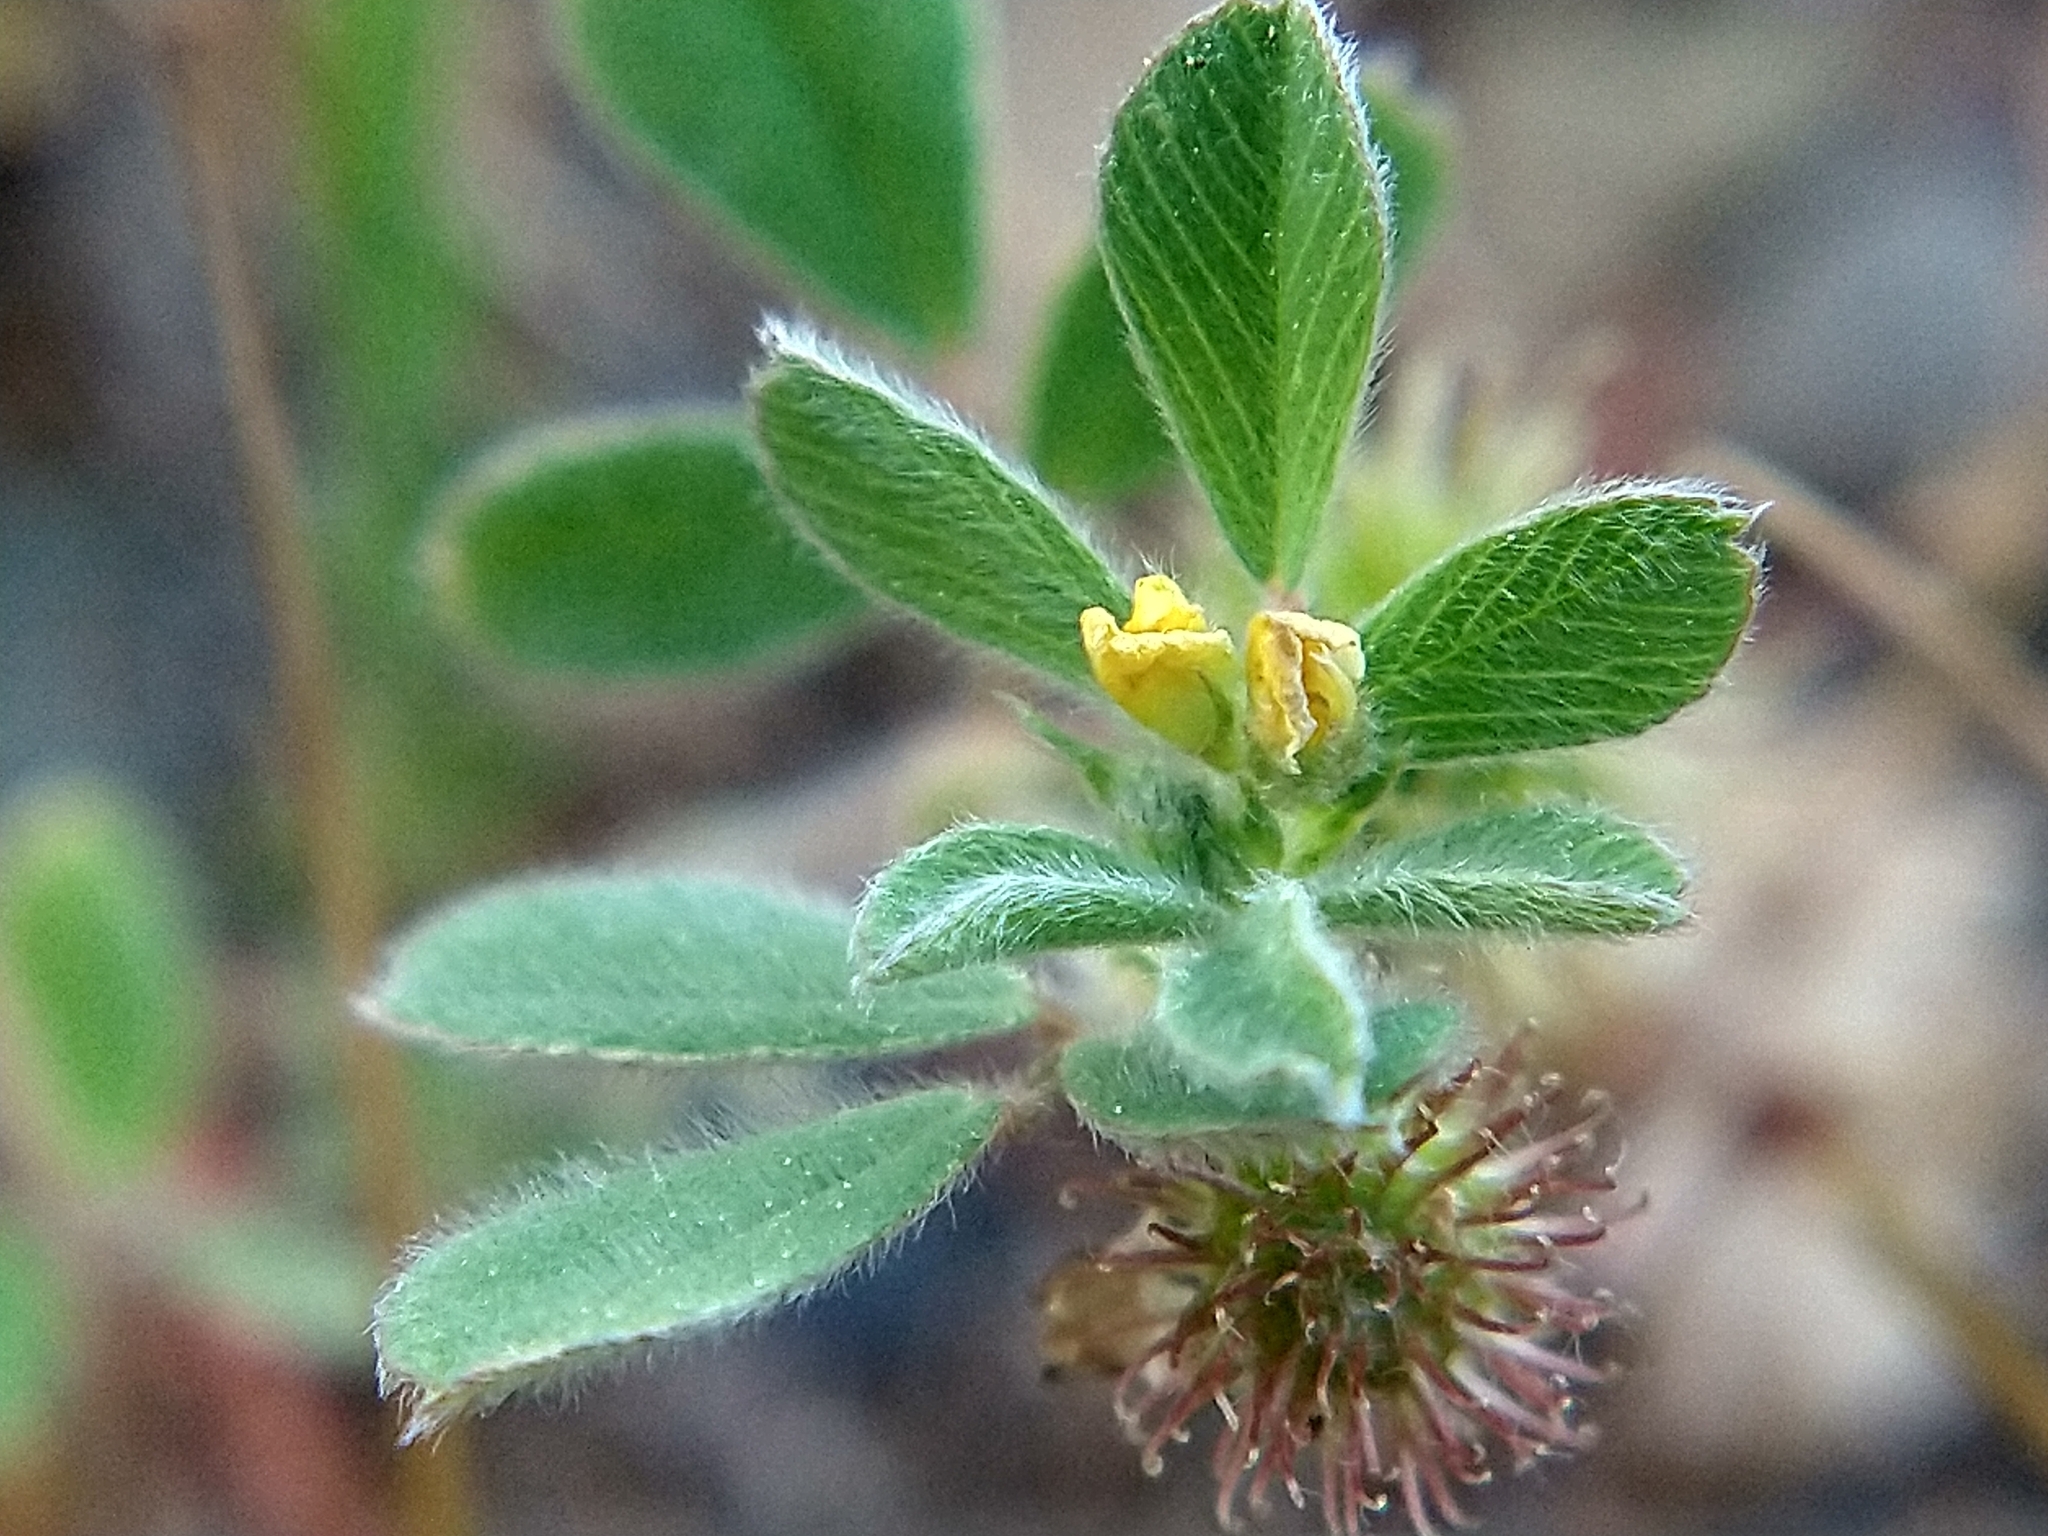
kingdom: Plantae
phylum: Tracheophyta
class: Magnoliopsida
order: Fabales
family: Fabaceae
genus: Medicago
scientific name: Medicago minima
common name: Little bur-clover
